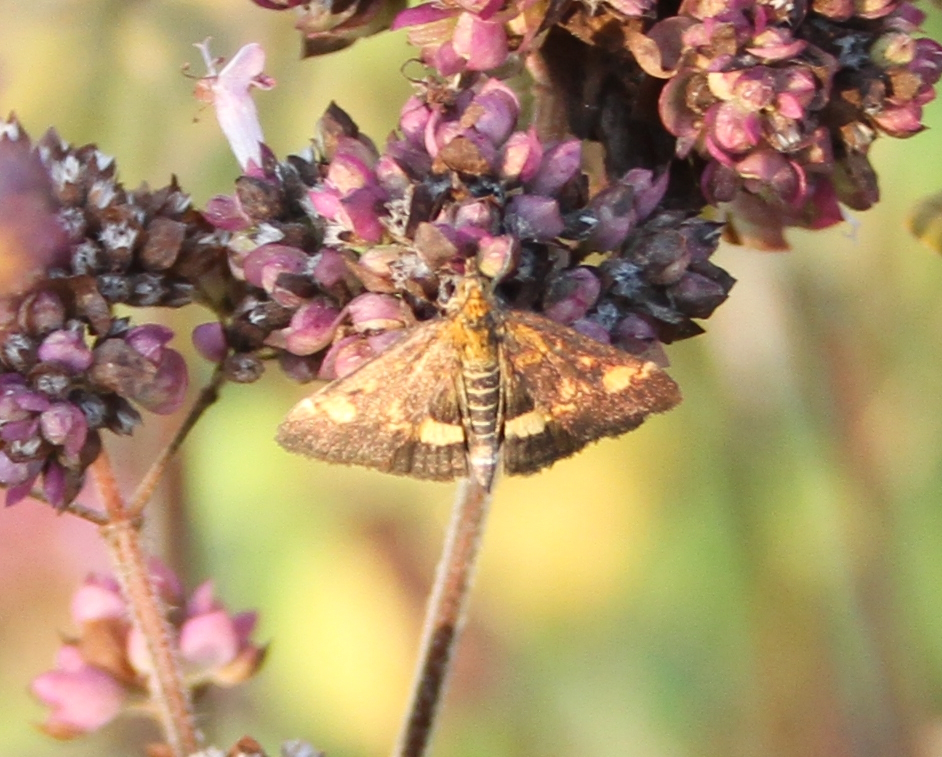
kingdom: Animalia
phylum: Arthropoda
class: Insecta
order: Lepidoptera
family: Crambidae
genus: Pyrausta
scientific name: Pyrausta aurata
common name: Small purple & gold
